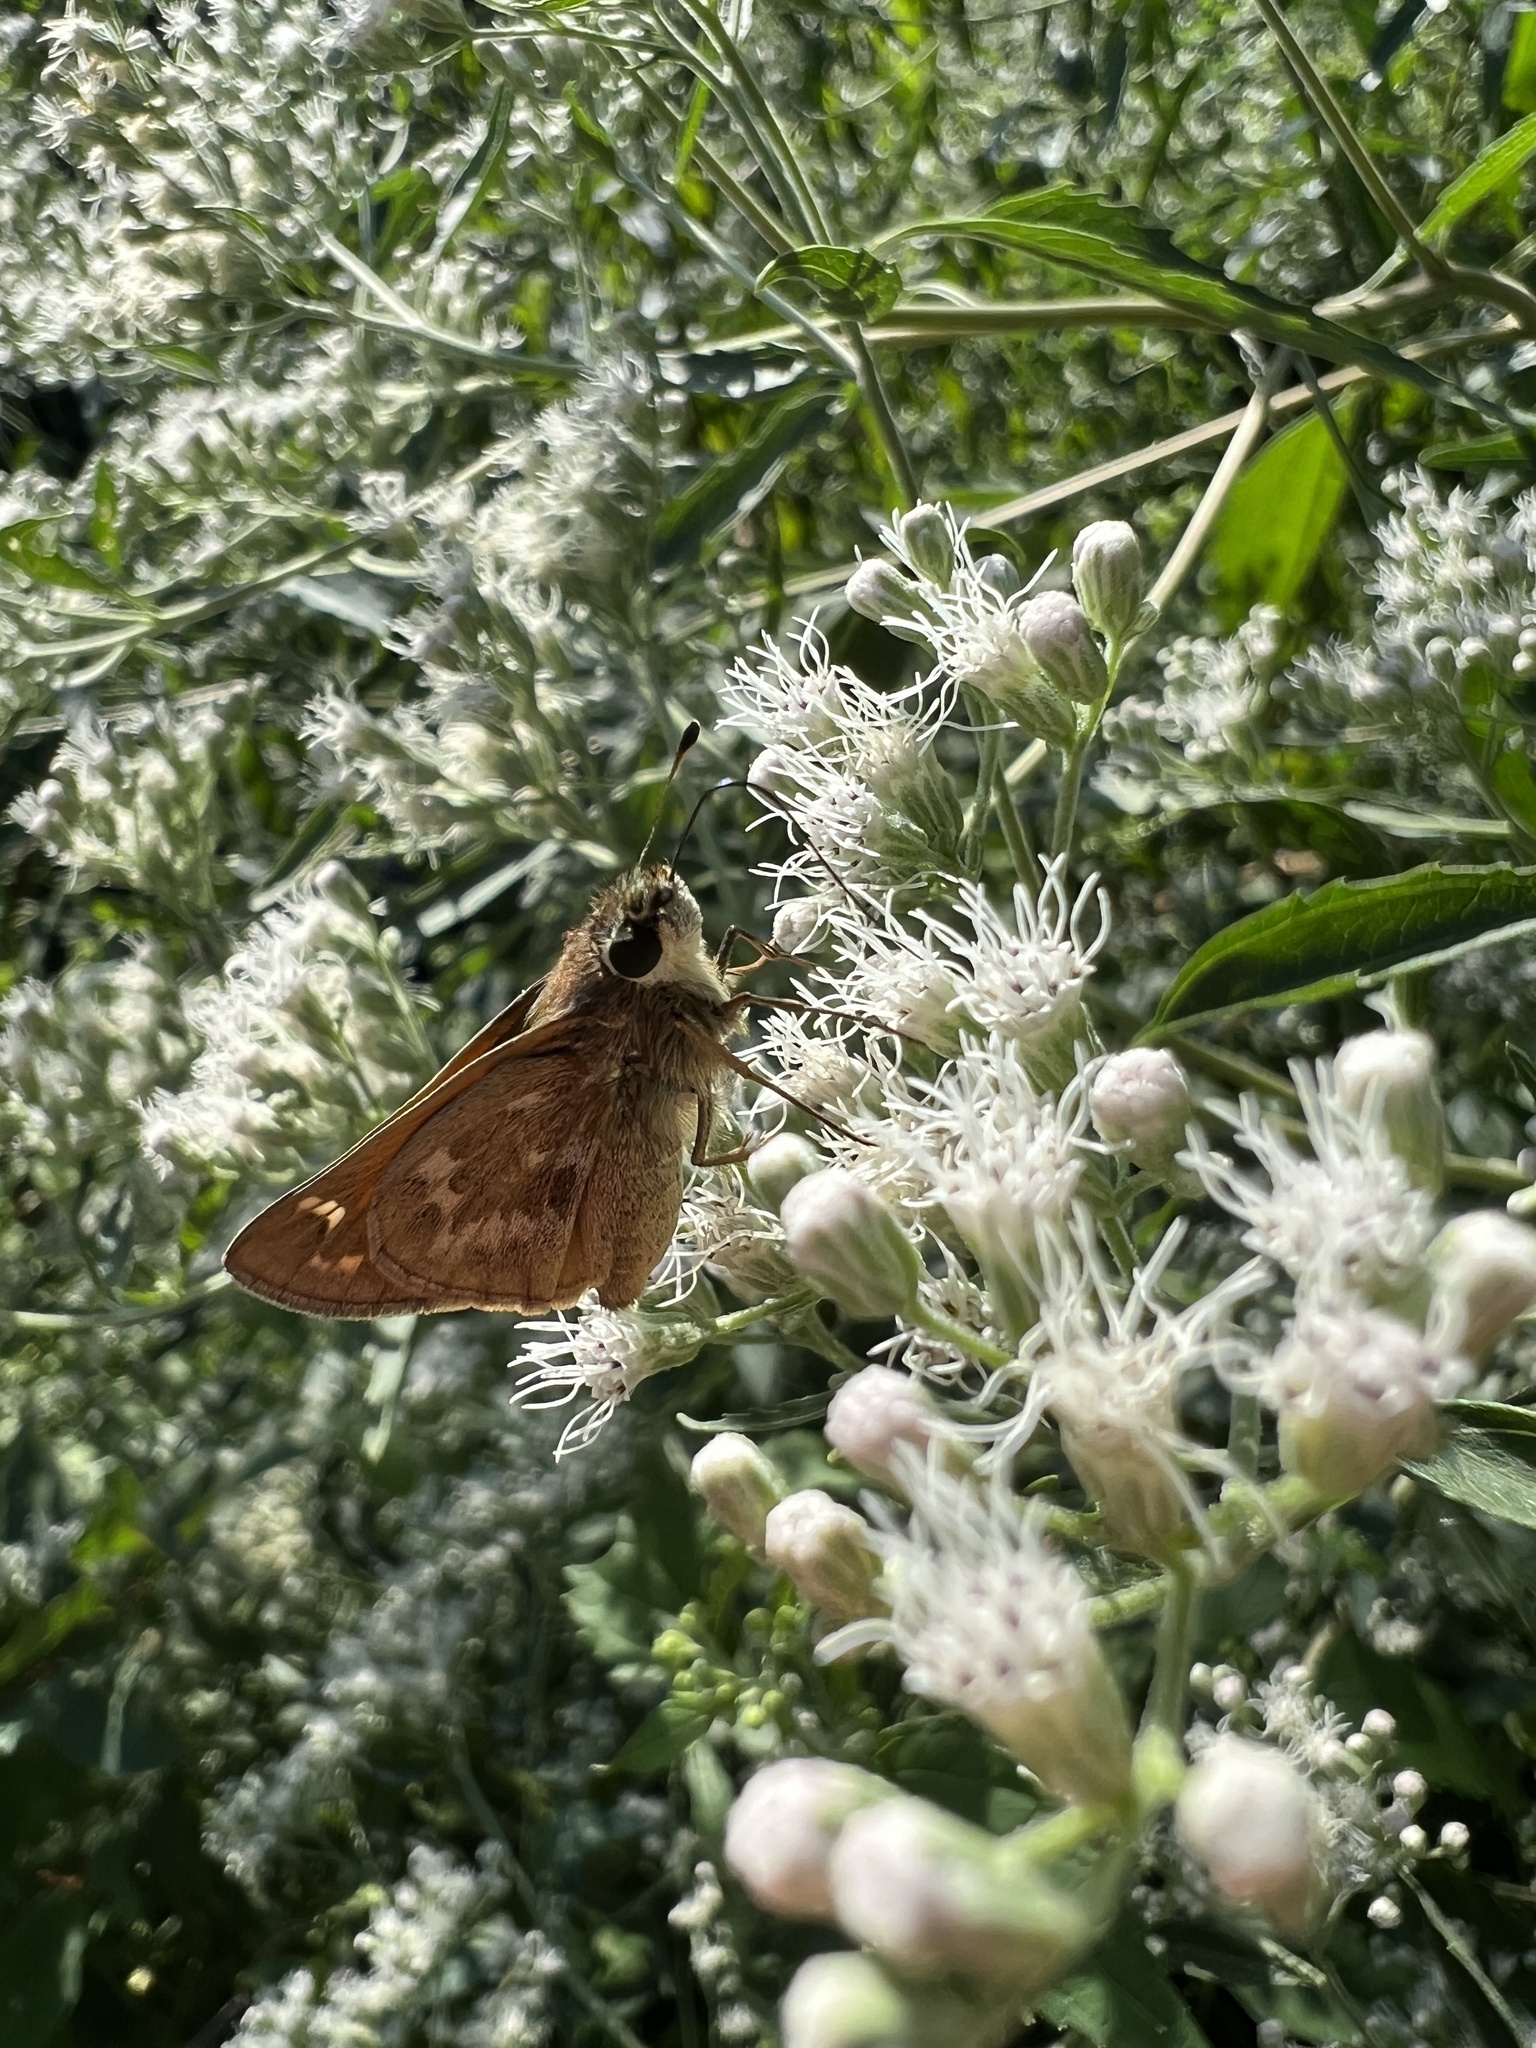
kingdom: Animalia
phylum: Arthropoda
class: Insecta
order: Lepidoptera
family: Hesperiidae
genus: Atalopedes
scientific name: Atalopedes
